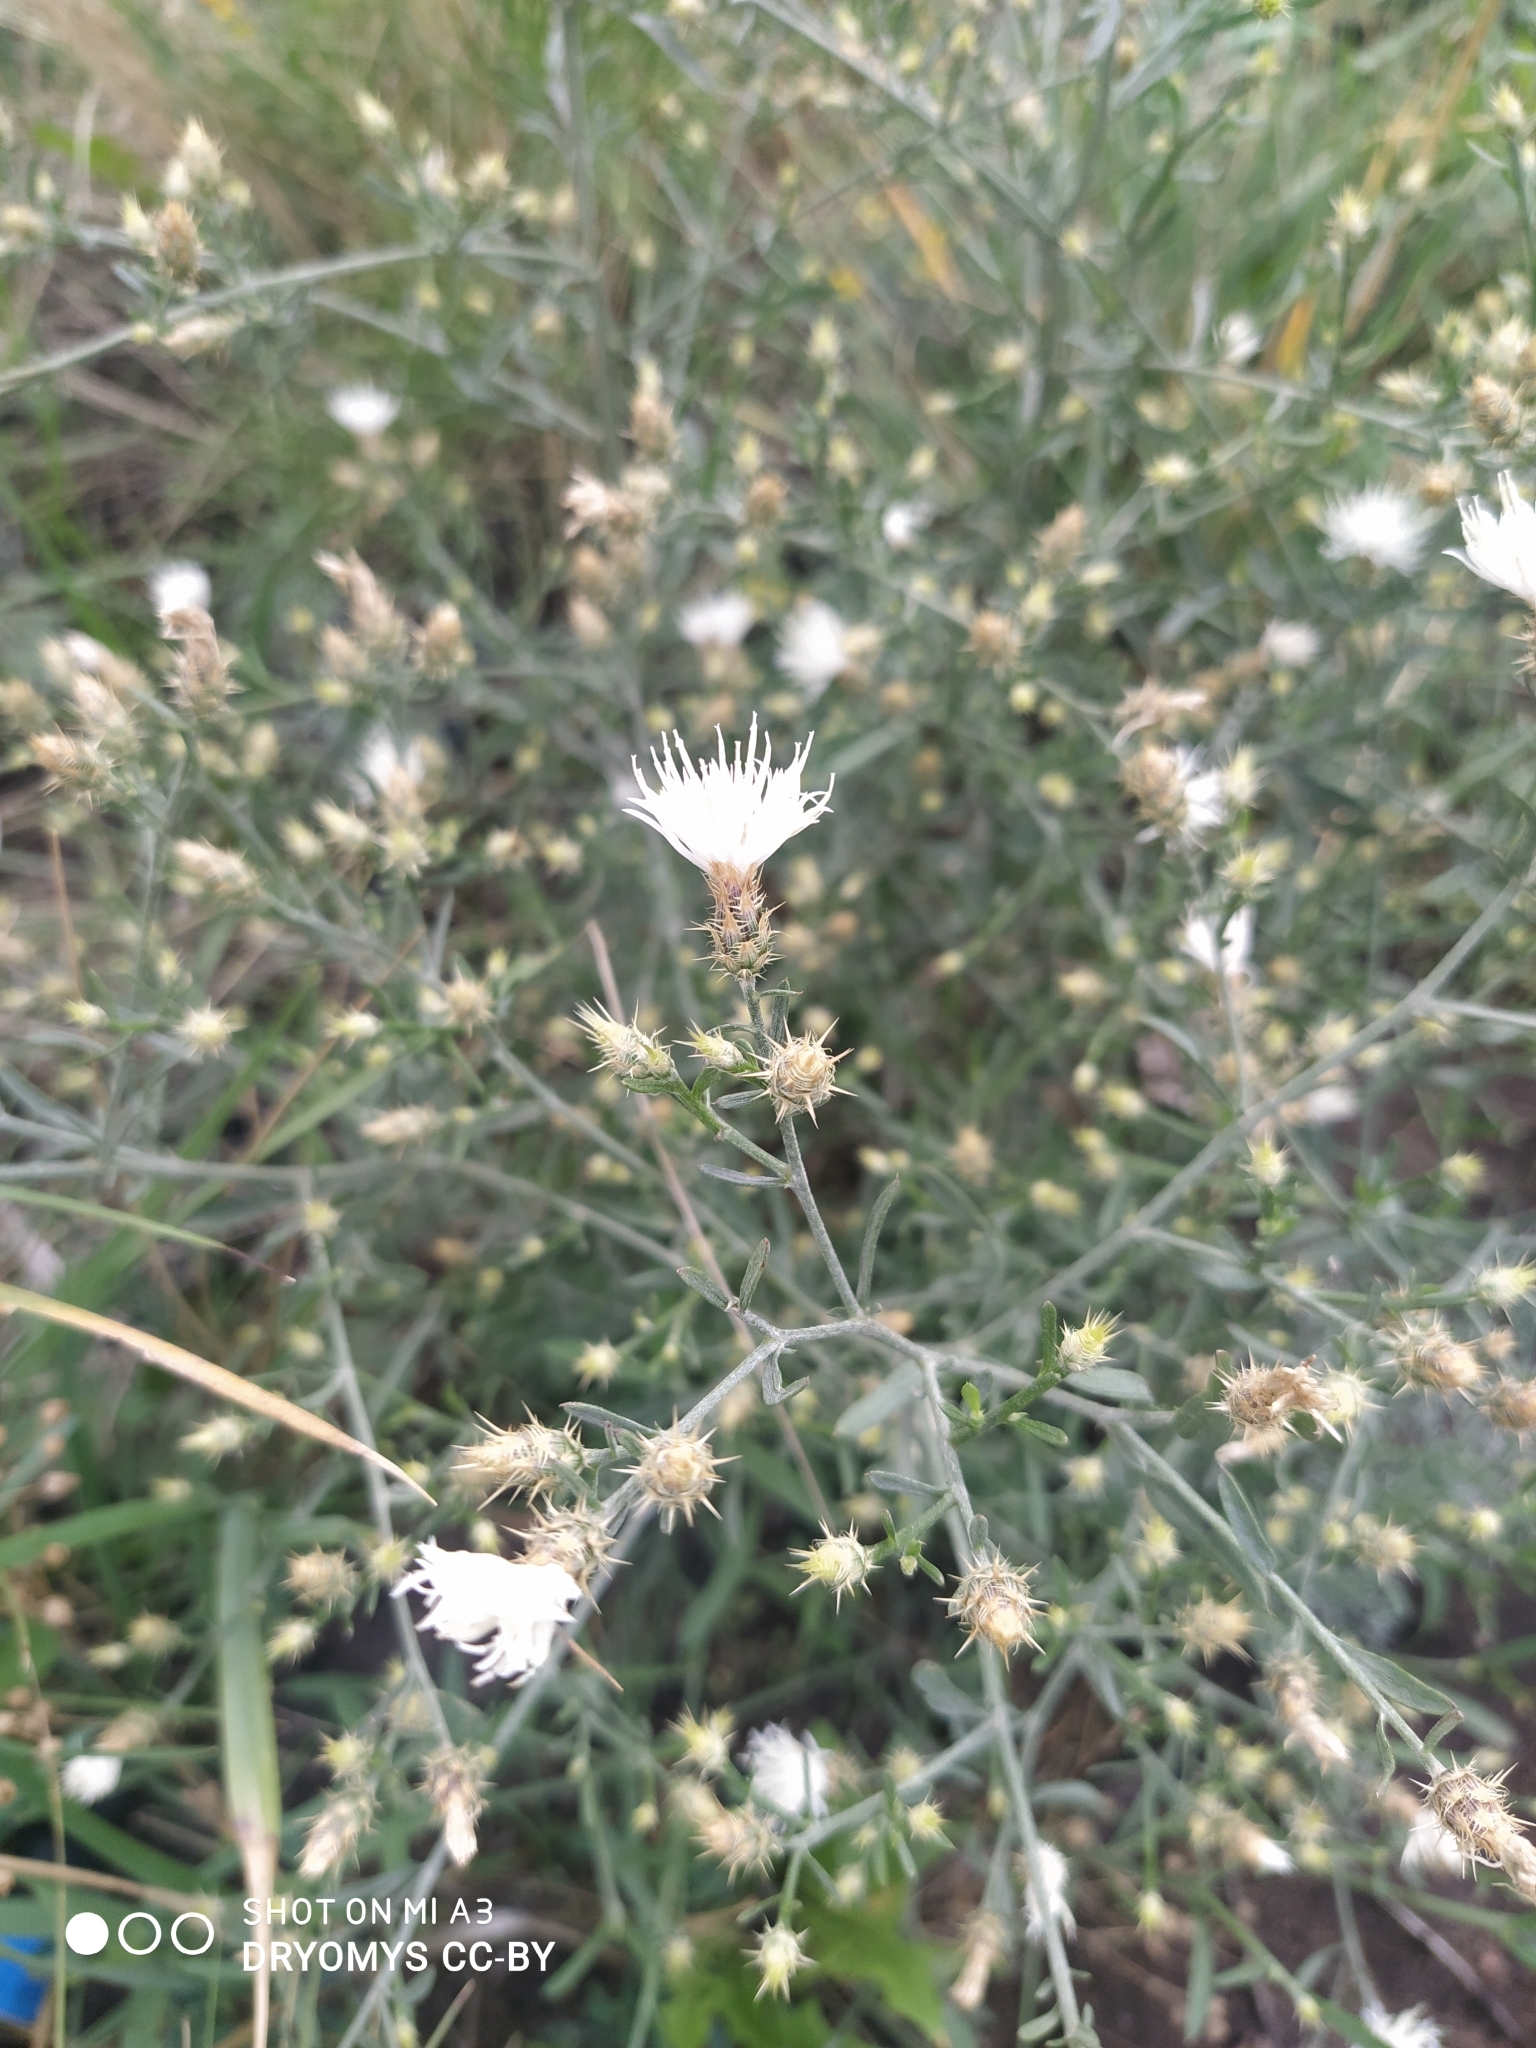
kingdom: Plantae
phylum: Tracheophyta
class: Magnoliopsida
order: Asterales
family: Asteraceae
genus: Centaurea
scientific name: Centaurea diffusa
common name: Diffuse knapweed
